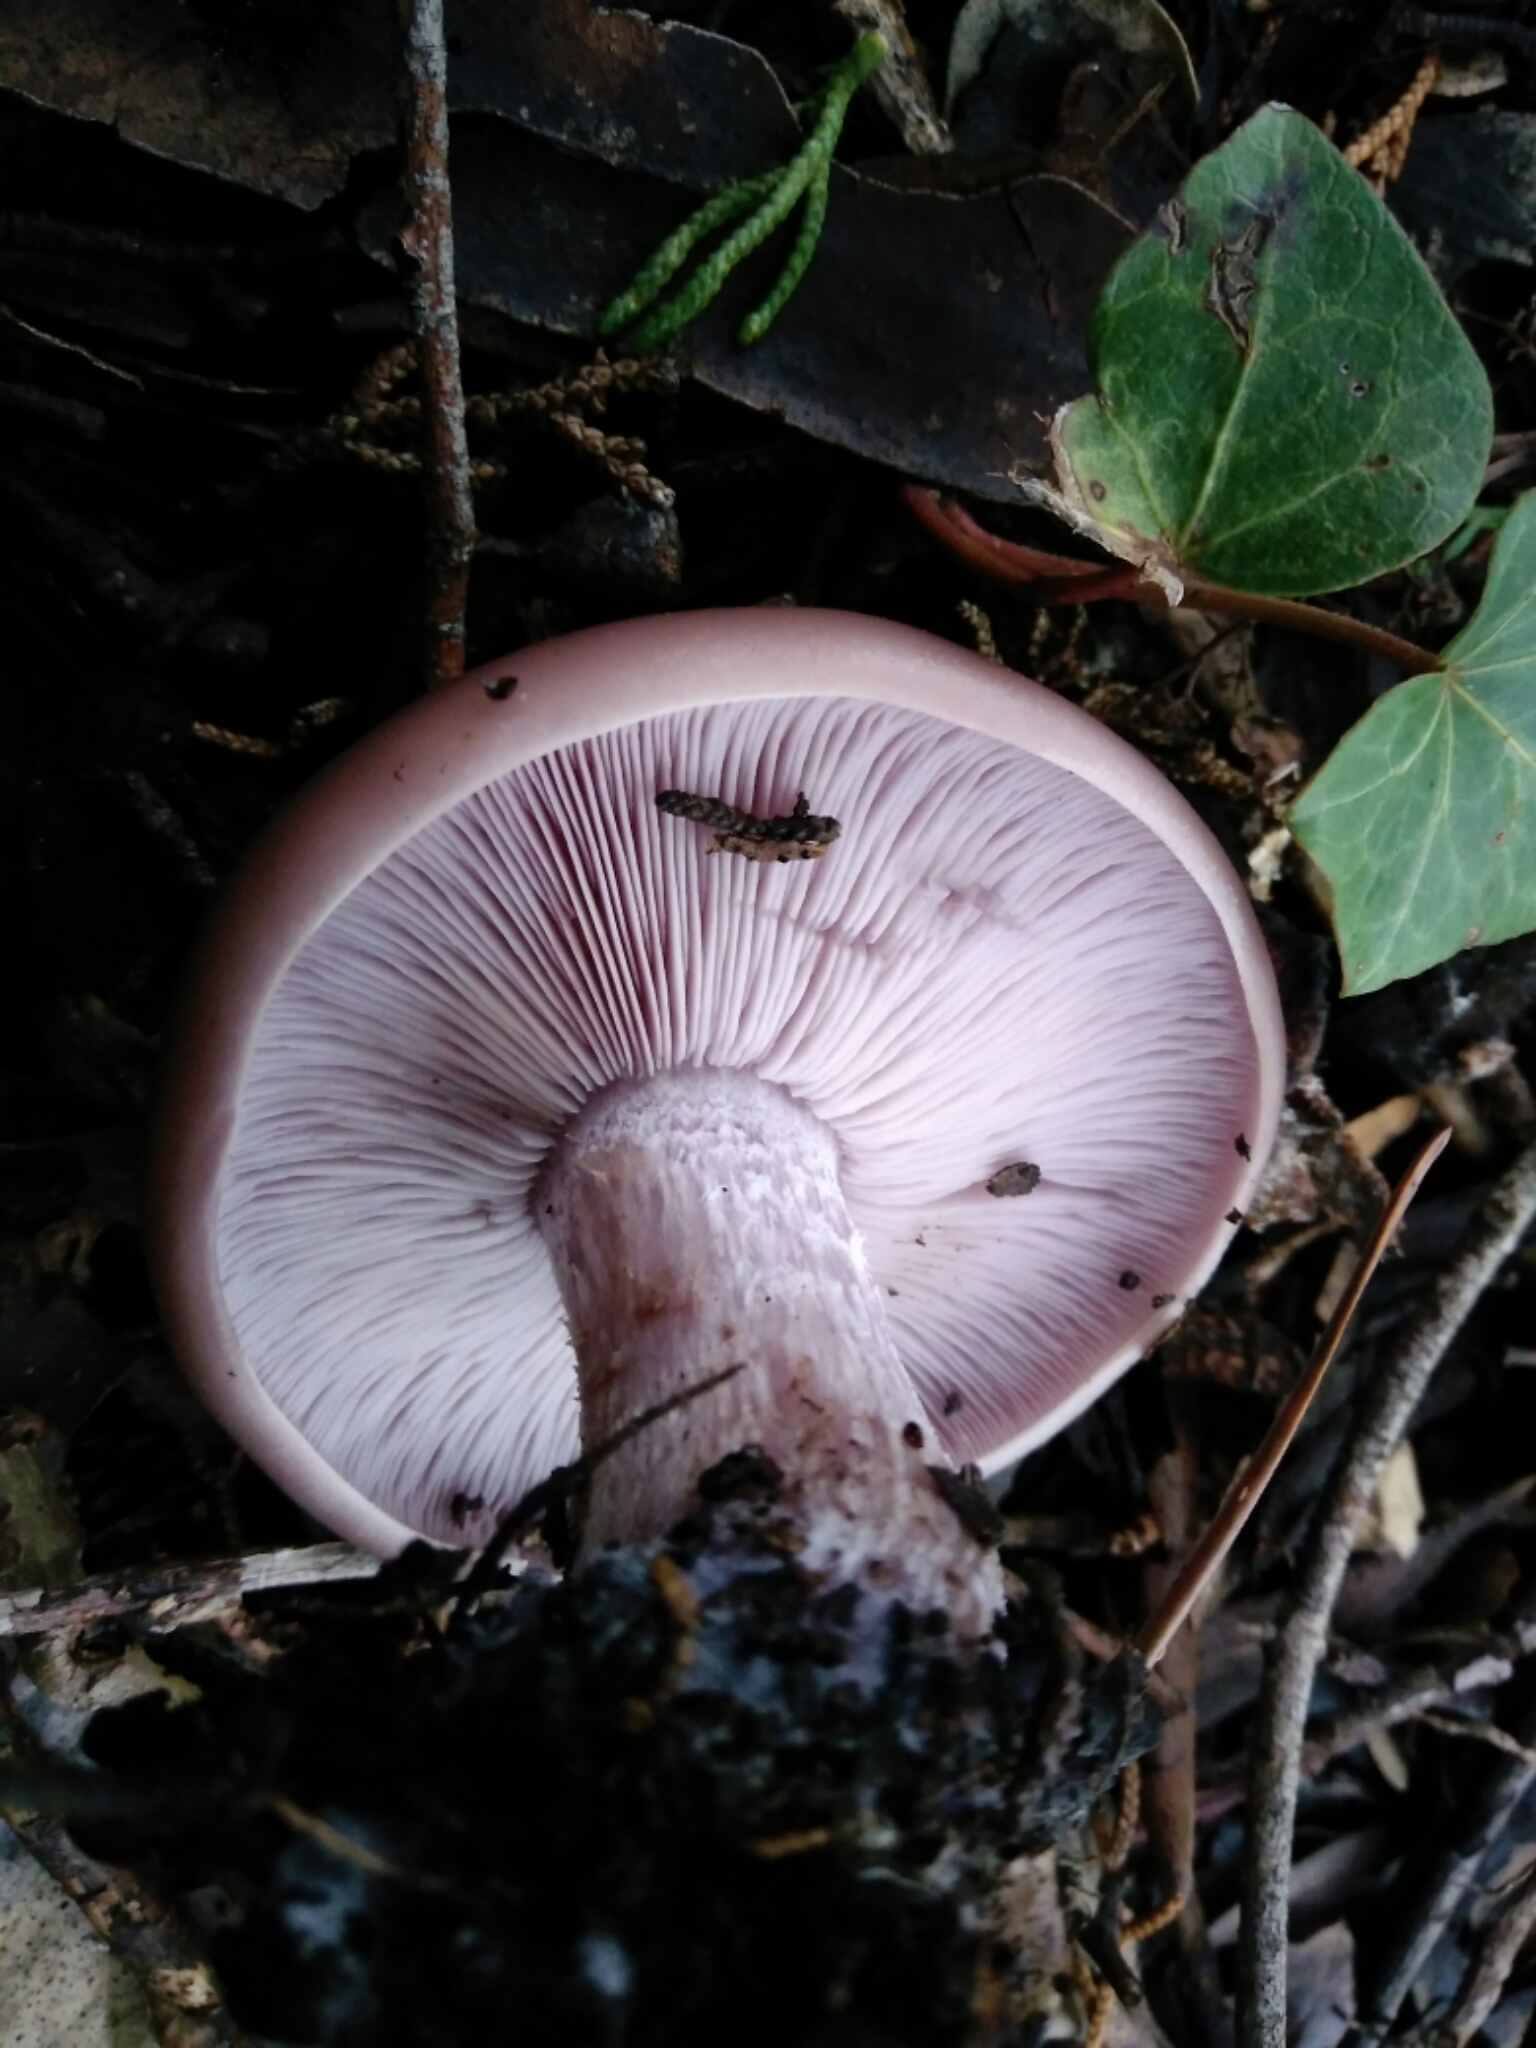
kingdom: Fungi
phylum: Basidiomycota
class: Agaricomycetes
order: Agaricales
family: Tricholomataceae
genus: Collybia
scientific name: Collybia
